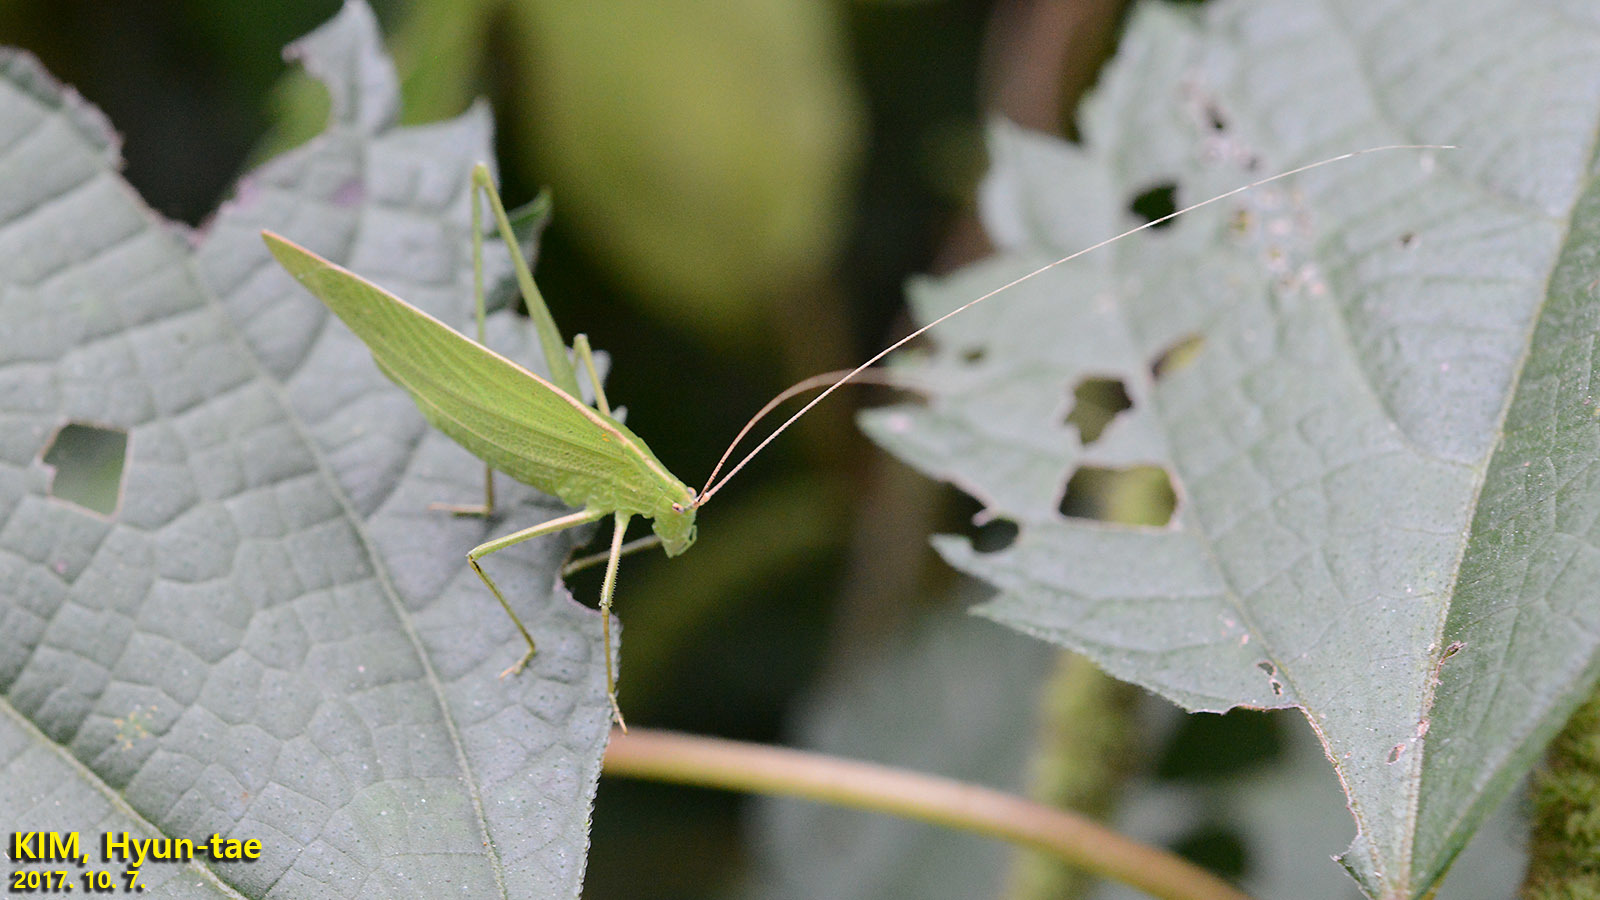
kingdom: Animalia
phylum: Arthropoda
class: Insecta
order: Orthoptera
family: Tettigoniidae
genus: Ducetia
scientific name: Ducetia japonica
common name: Pacific ducetia
